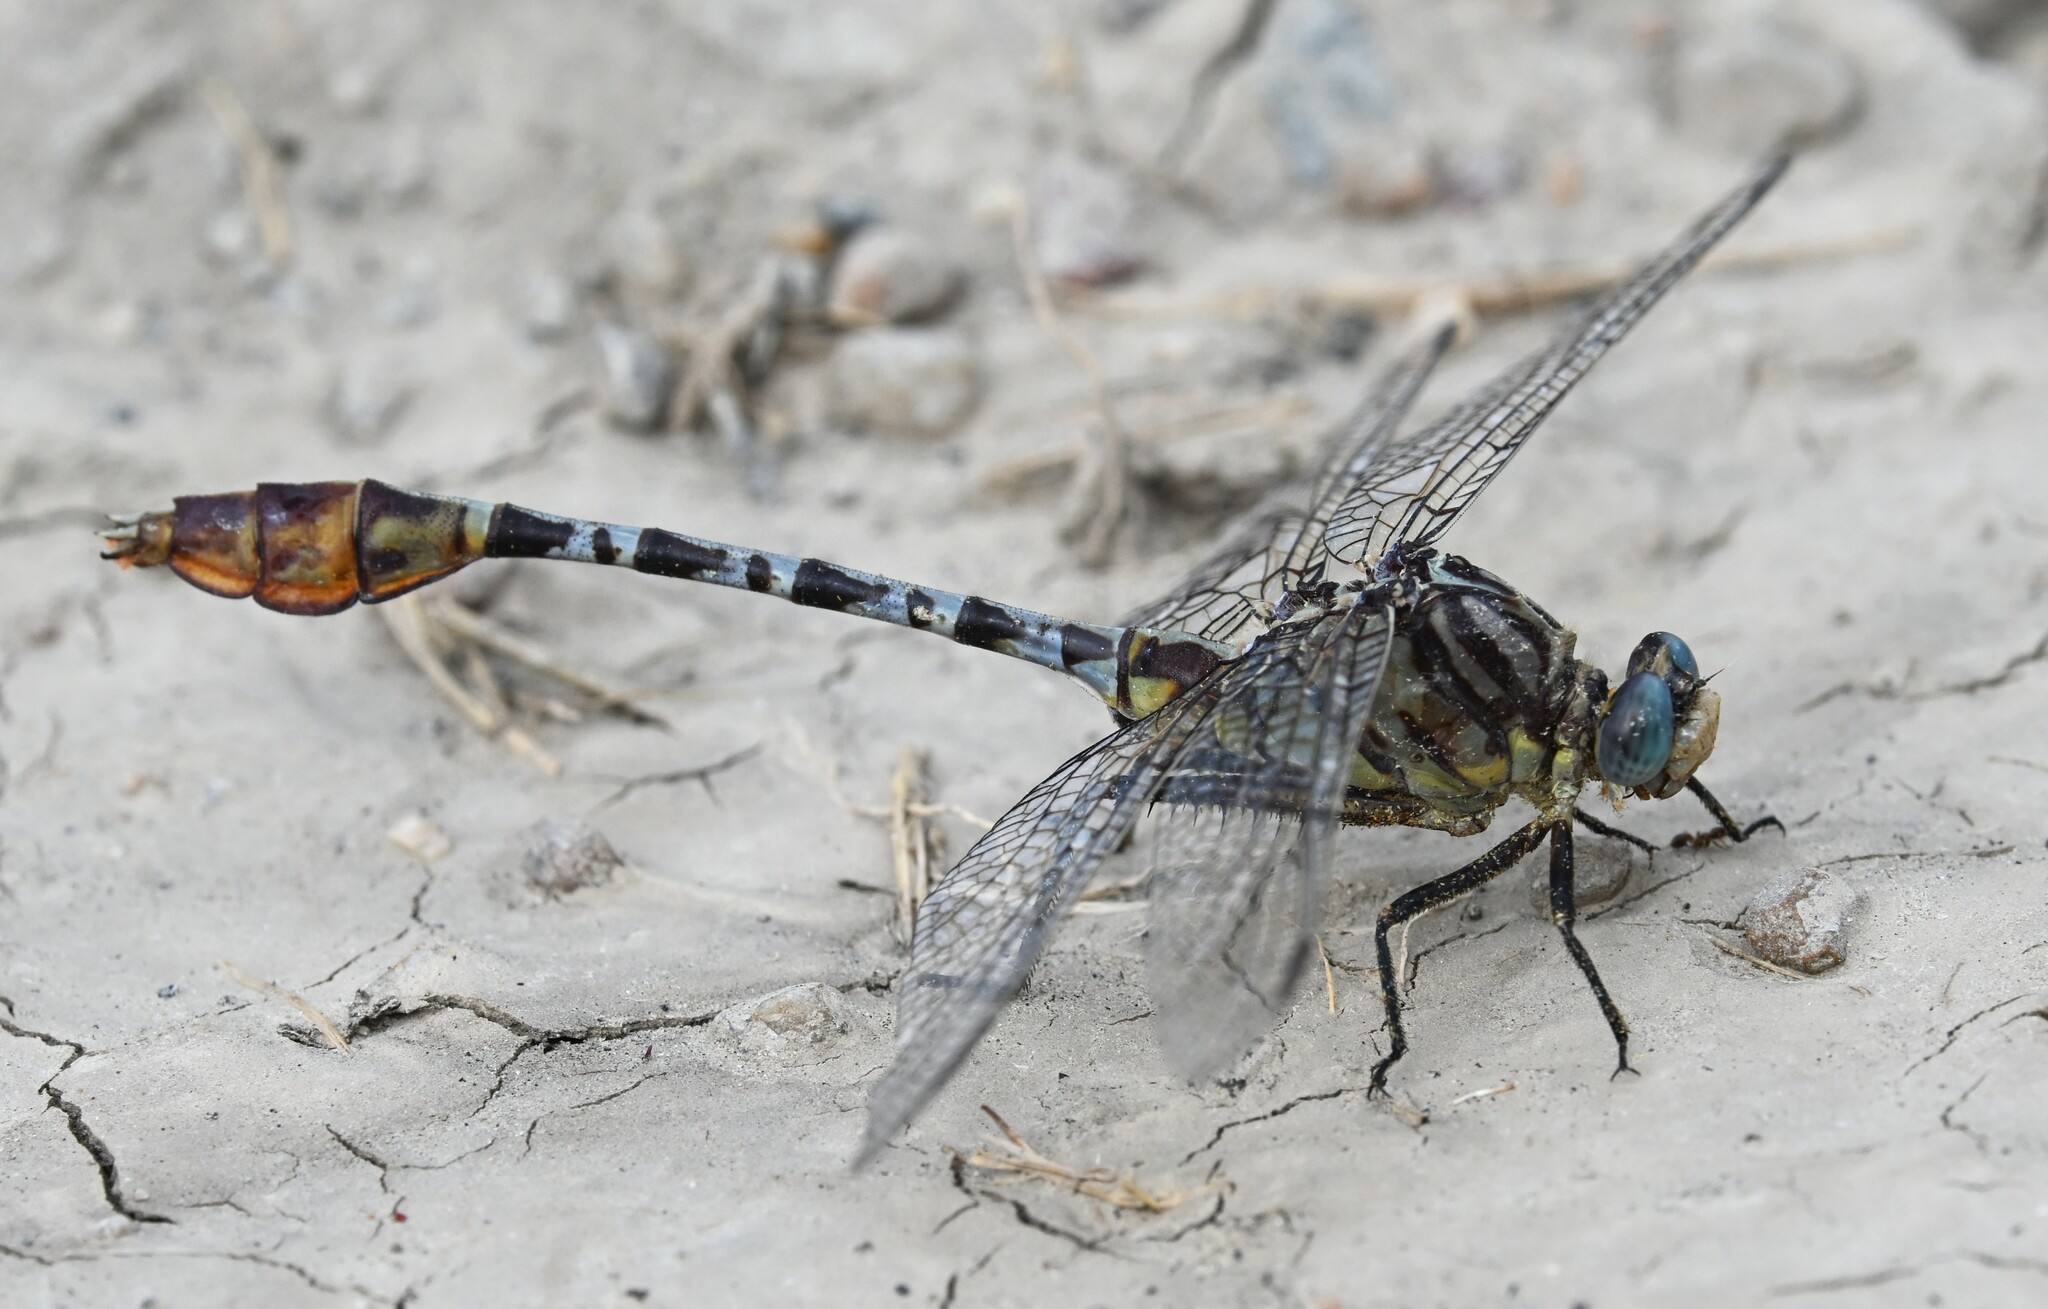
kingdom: Animalia
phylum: Arthropoda
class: Insecta
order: Odonata
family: Gomphidae
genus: Dromogomphus
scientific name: Dromogomphus spoliatus
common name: Flag-tailed spinyleg
